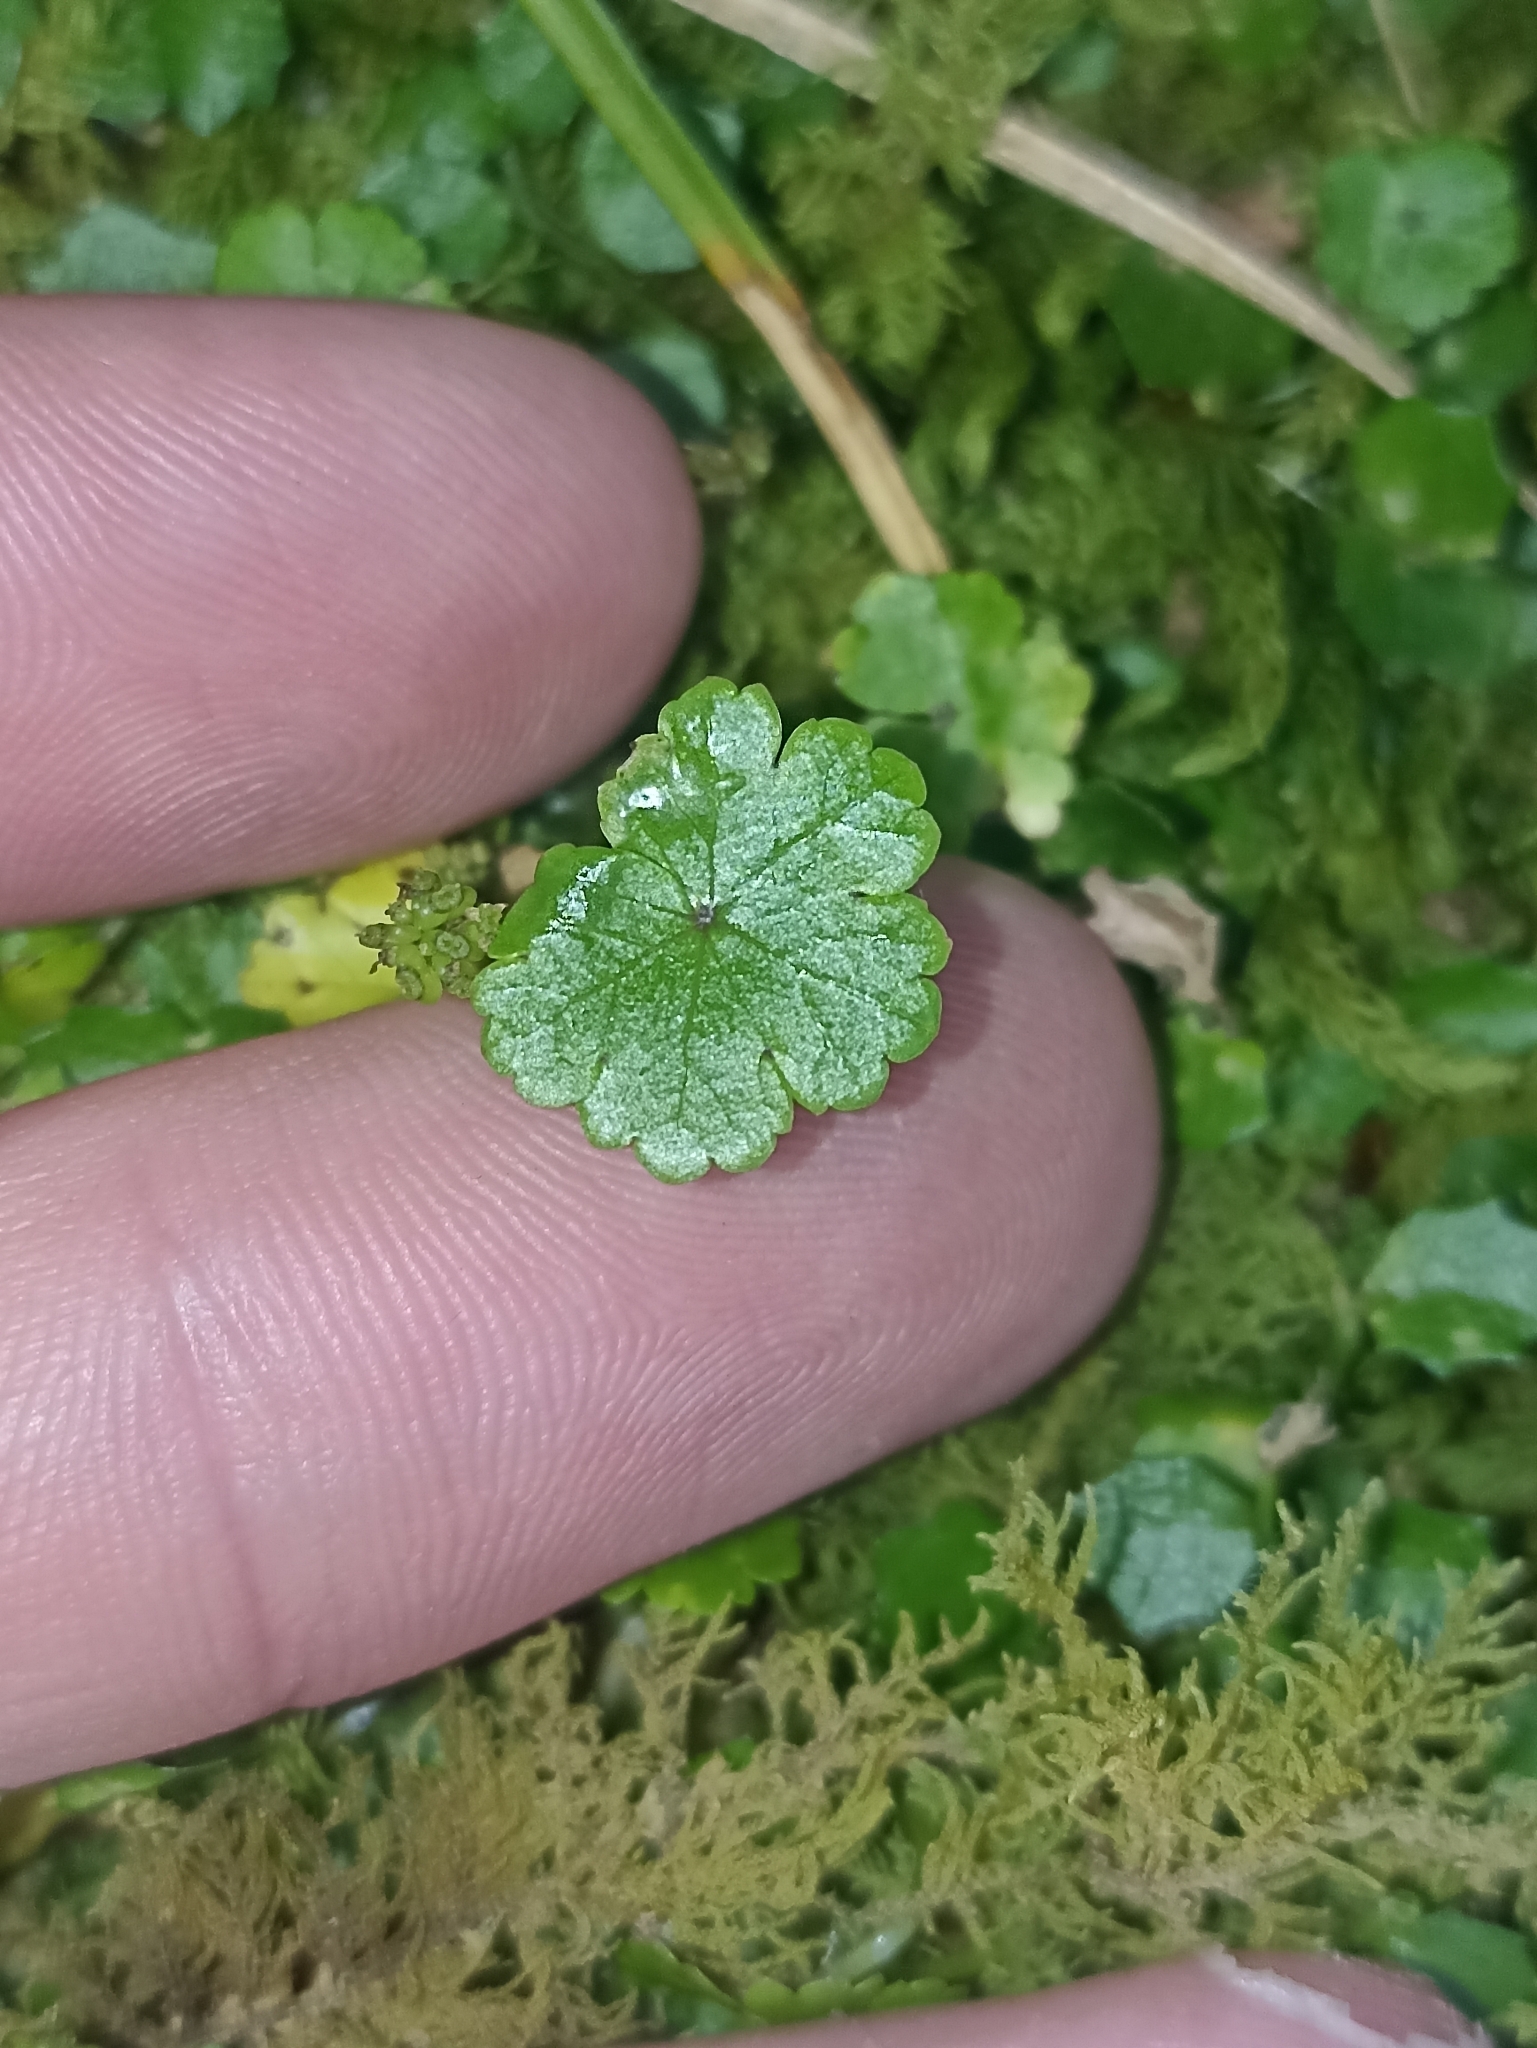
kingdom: Plantae
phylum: Tracheophyta
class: Magnoliopsida
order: Apiales
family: Araliaceae
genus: Hydrocotyle
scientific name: Hydrocotyle microphylla
